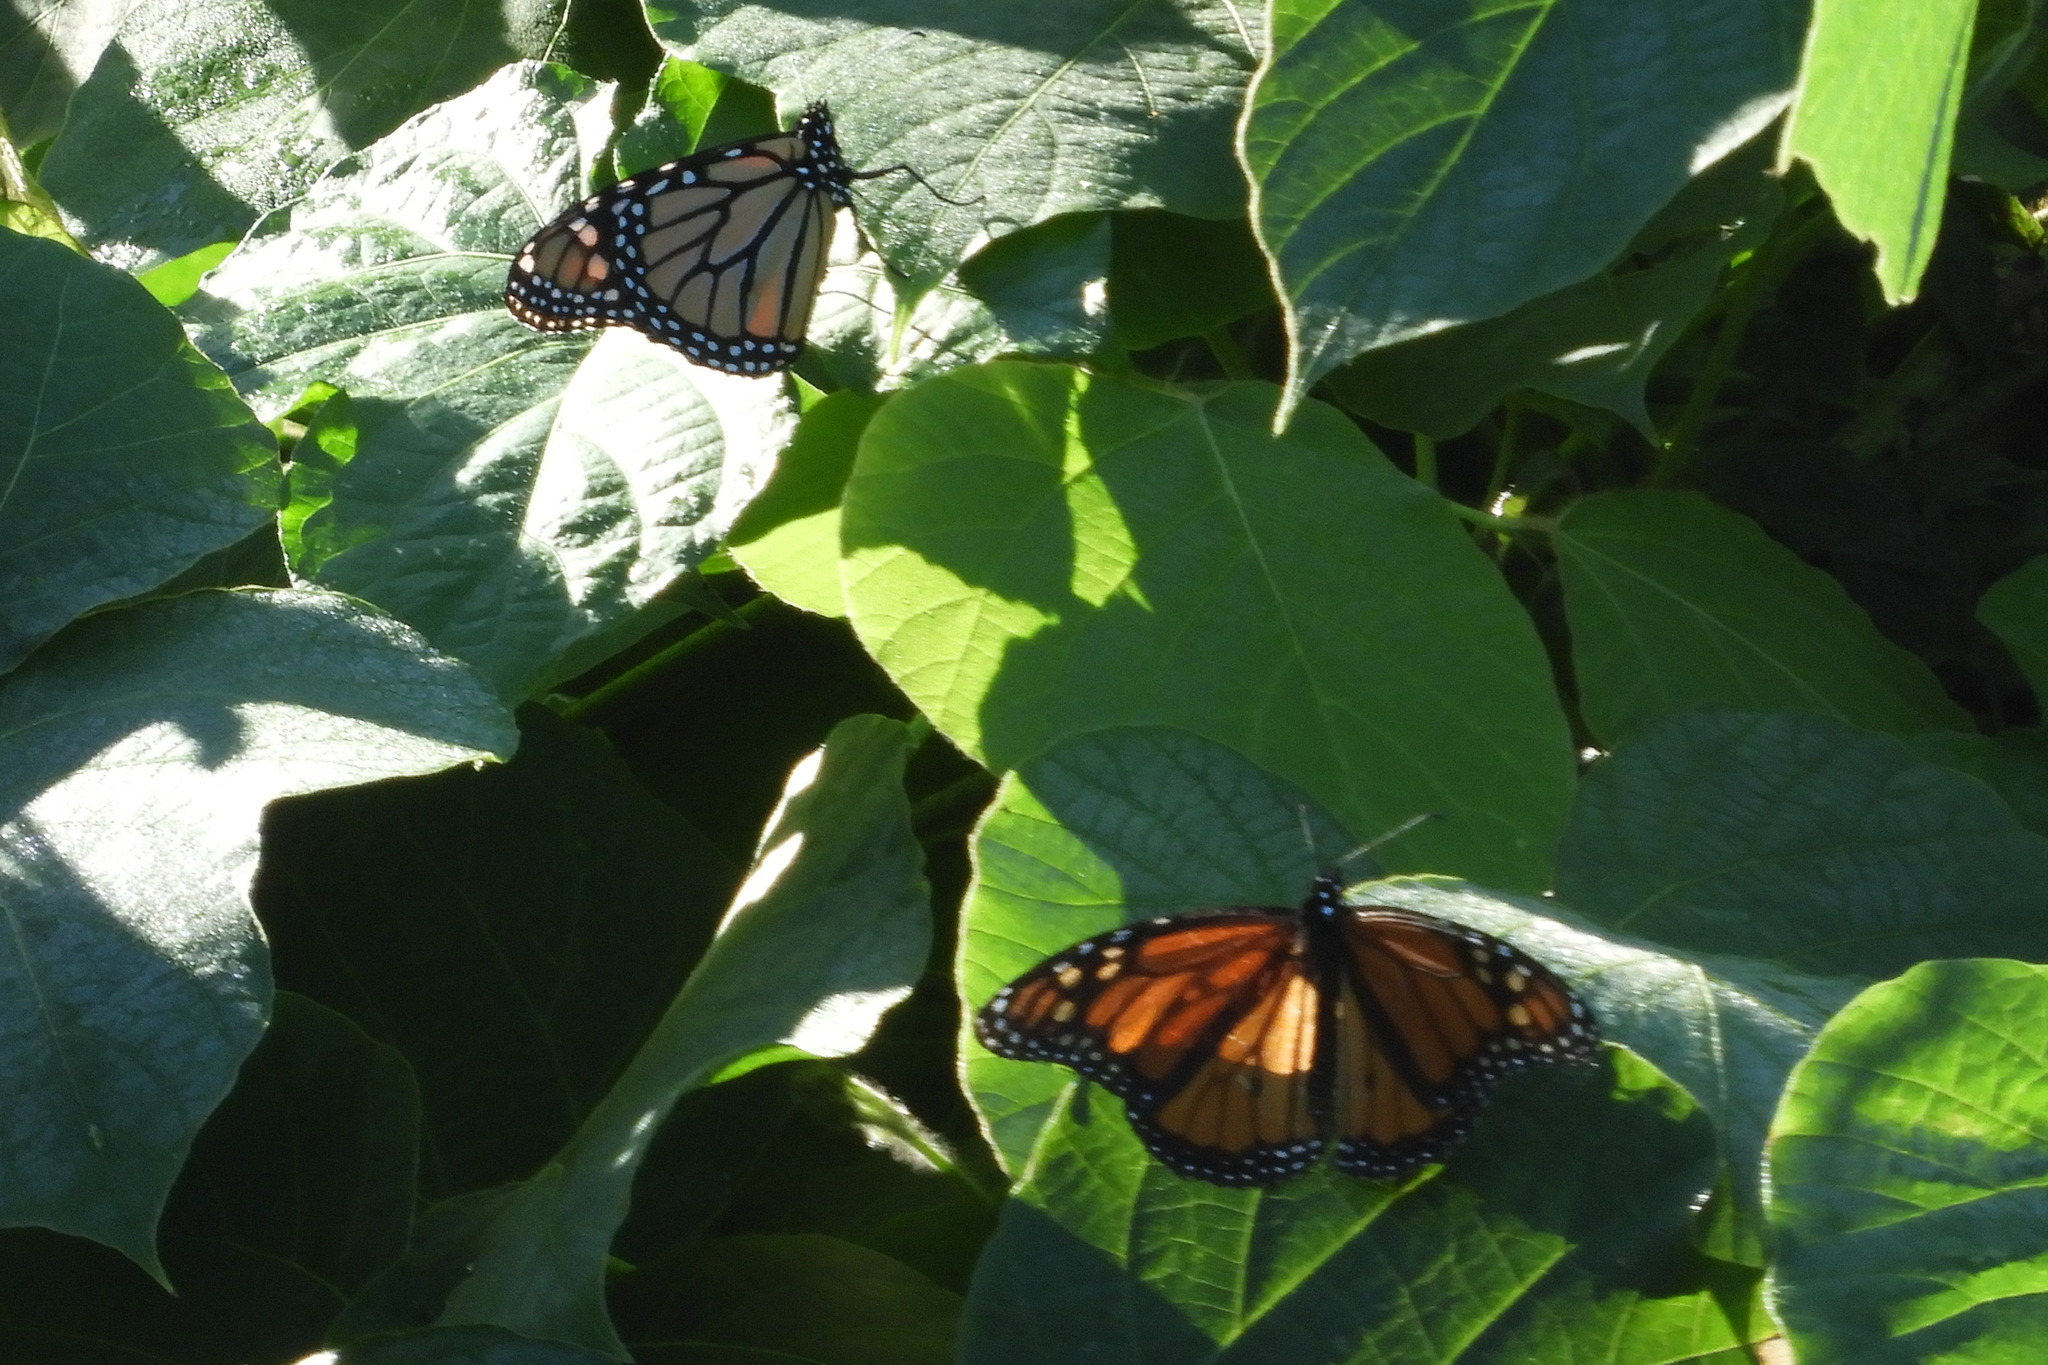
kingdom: Animalia
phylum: Arthropoda
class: Insecta
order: Lepidoptera
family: Nymphalidae
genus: Danaus
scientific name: Danaus plexippus
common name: Monarch
